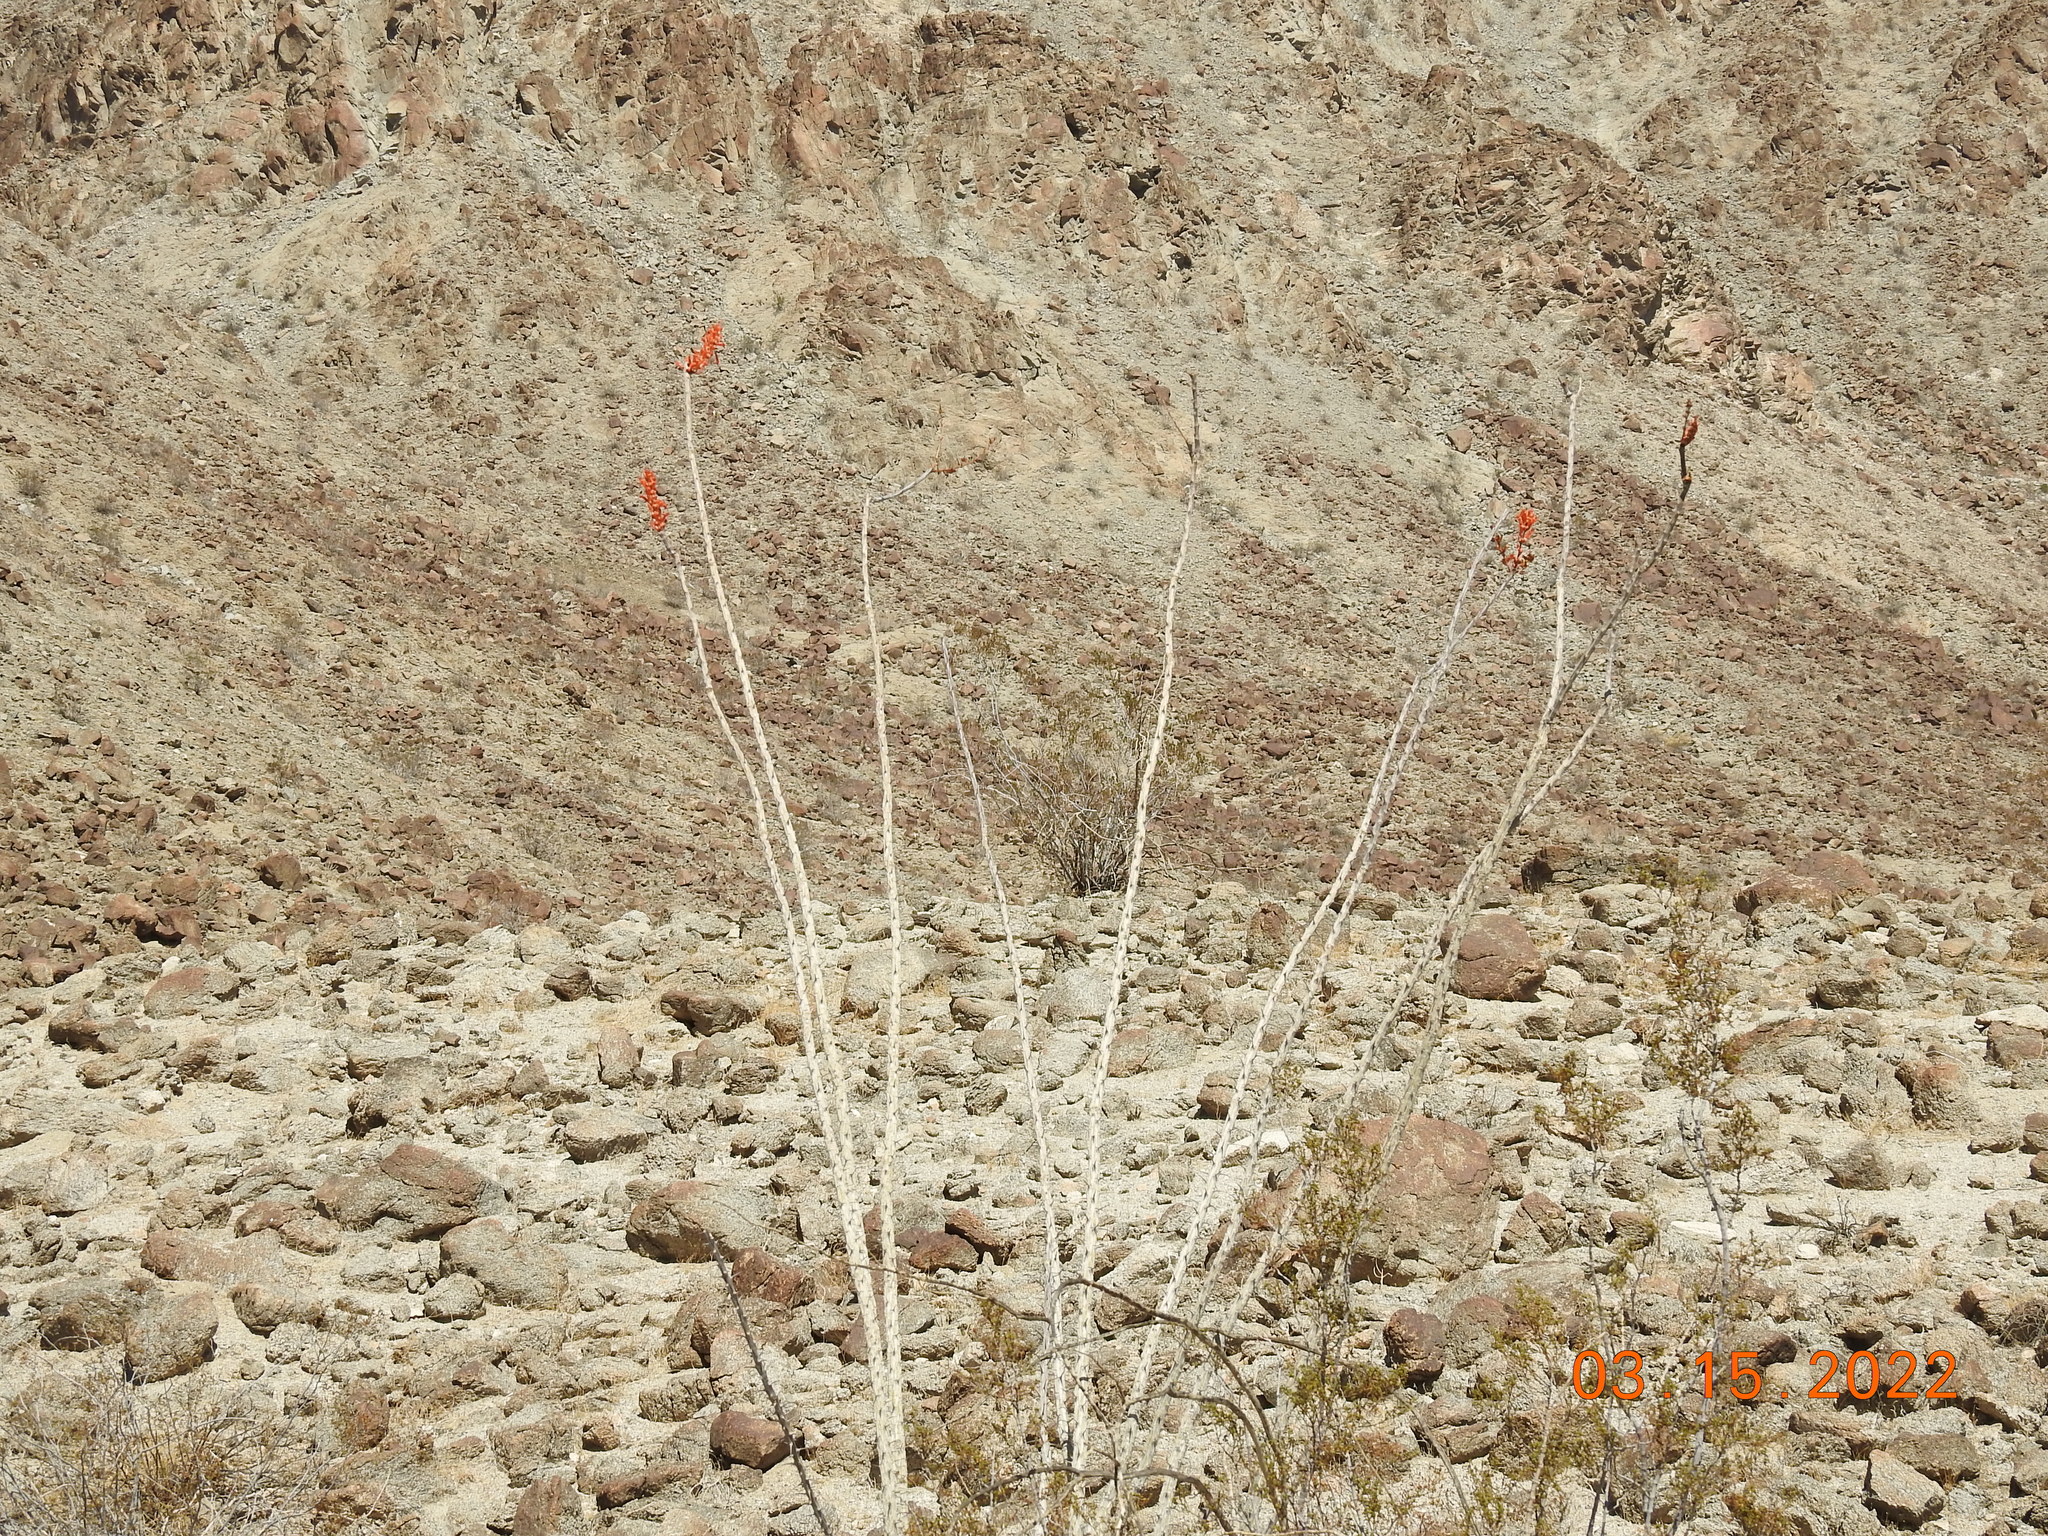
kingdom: Plantae
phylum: Tracheophyta
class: Magnoliopsida
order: Ericales
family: Fouquieriaceae
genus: Fouquieria
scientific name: Fouquieria splendens
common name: Vine-cactus
